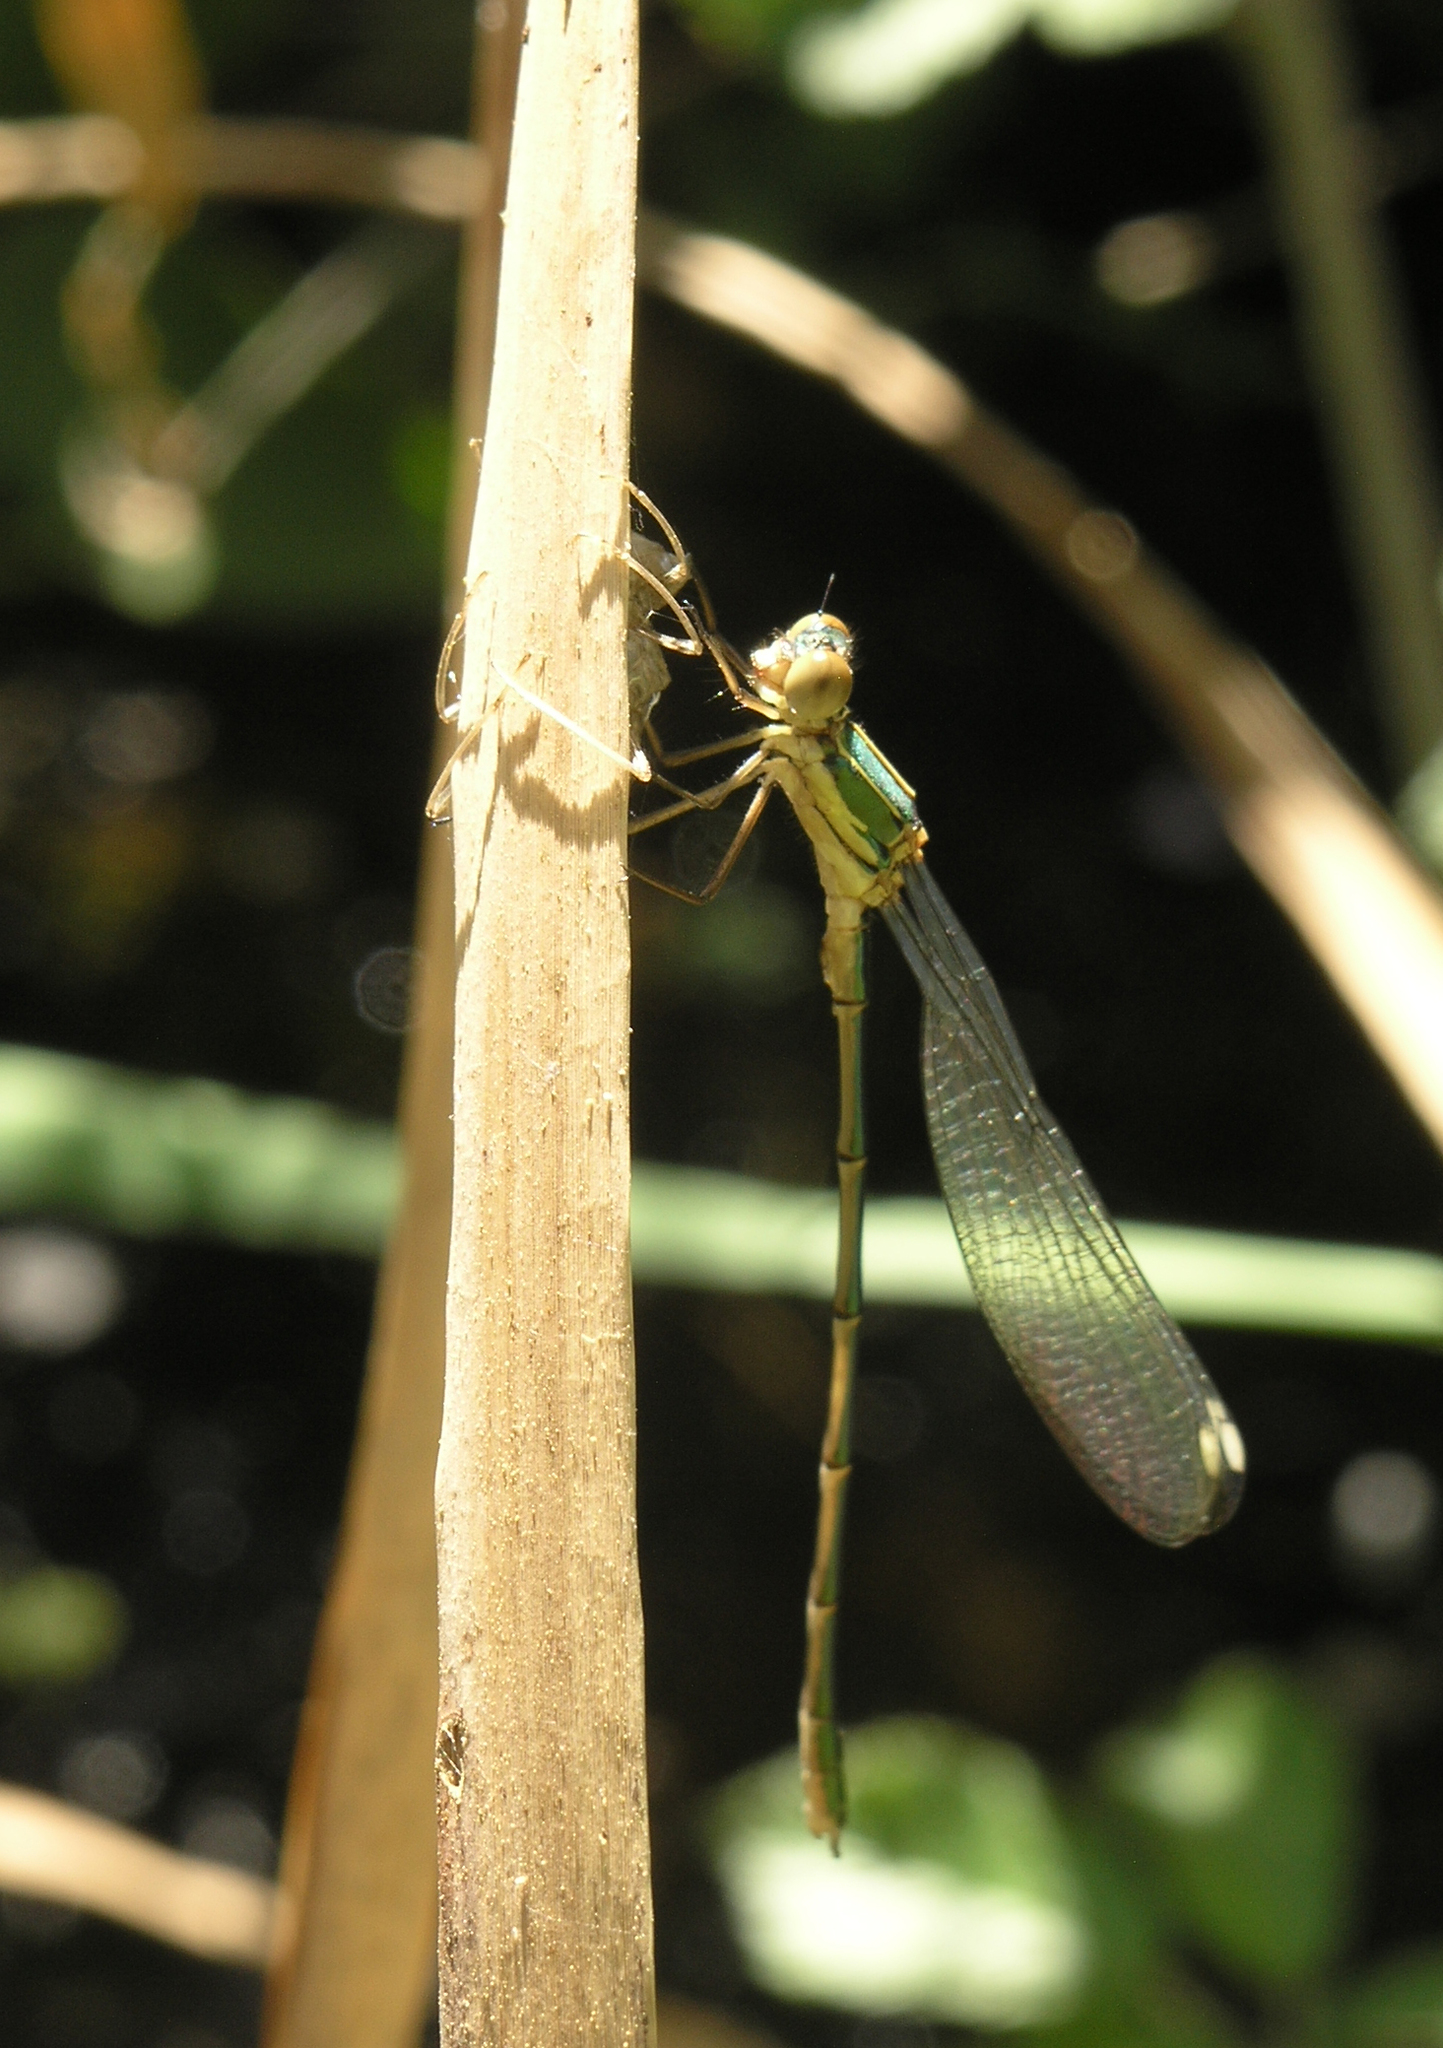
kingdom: Animalia
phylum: Arthropoda
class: Insecta
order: Odonata
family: Lestidae
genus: Chalcolestes
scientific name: Chalcolestes viridis
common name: Green emerald damselfly
